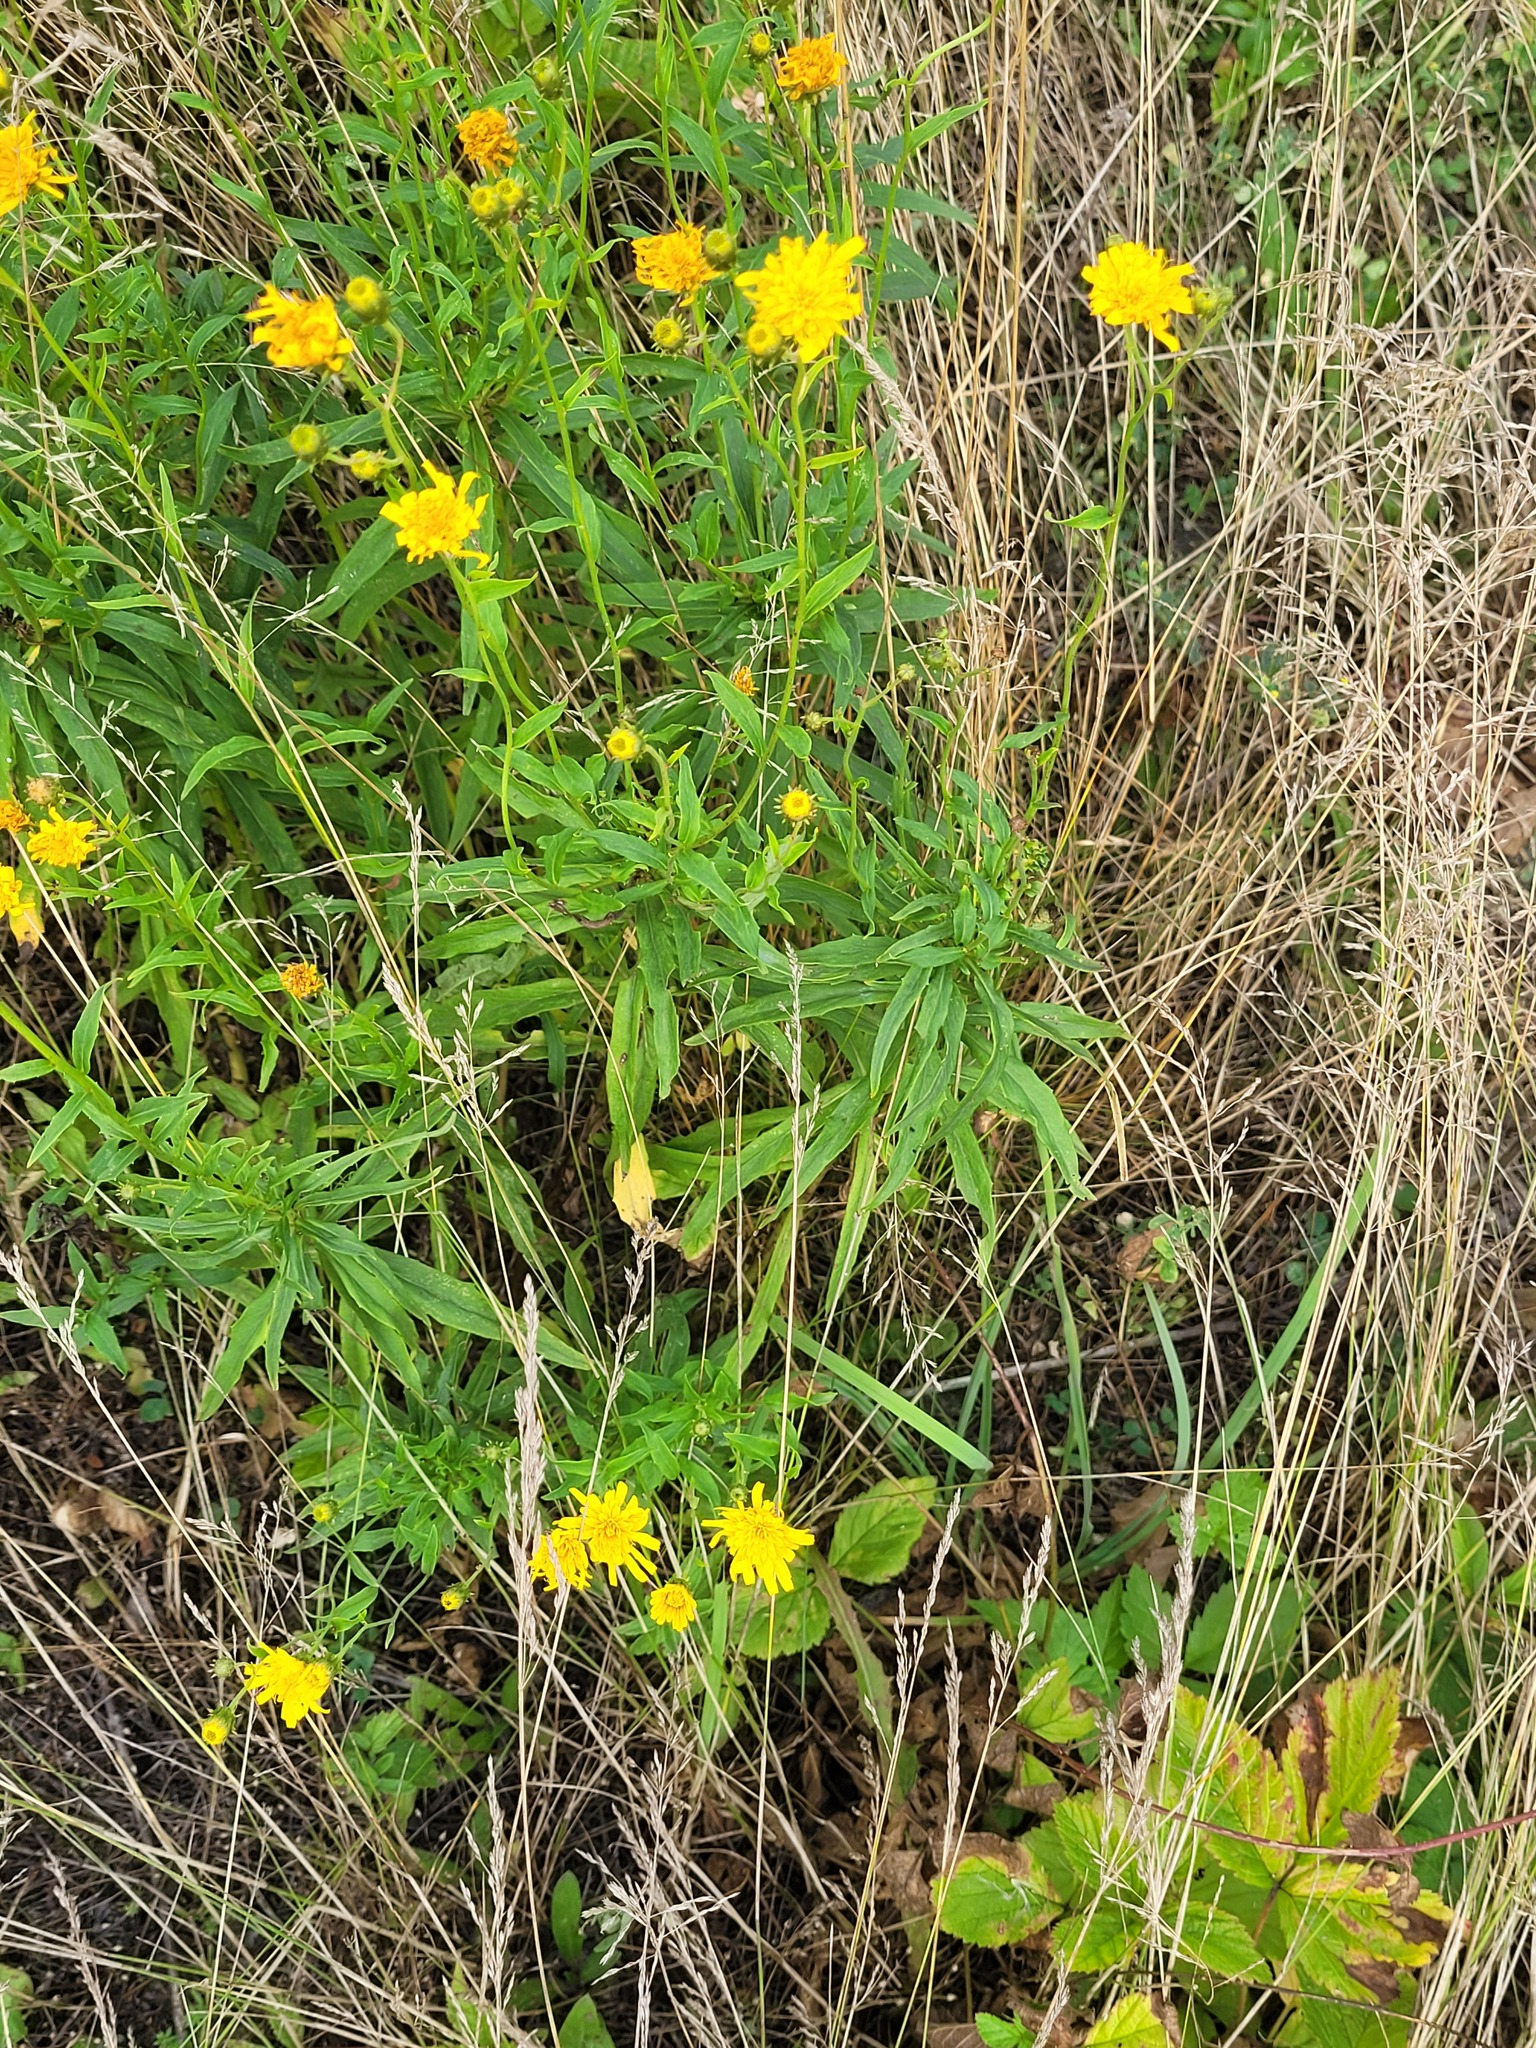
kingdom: Plantae
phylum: Tracheophyta
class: Magnoliopsida
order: Asterales
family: Asteraceae
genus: Hieracium
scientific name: Hieracium umbellatum
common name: Northern hawkweed
